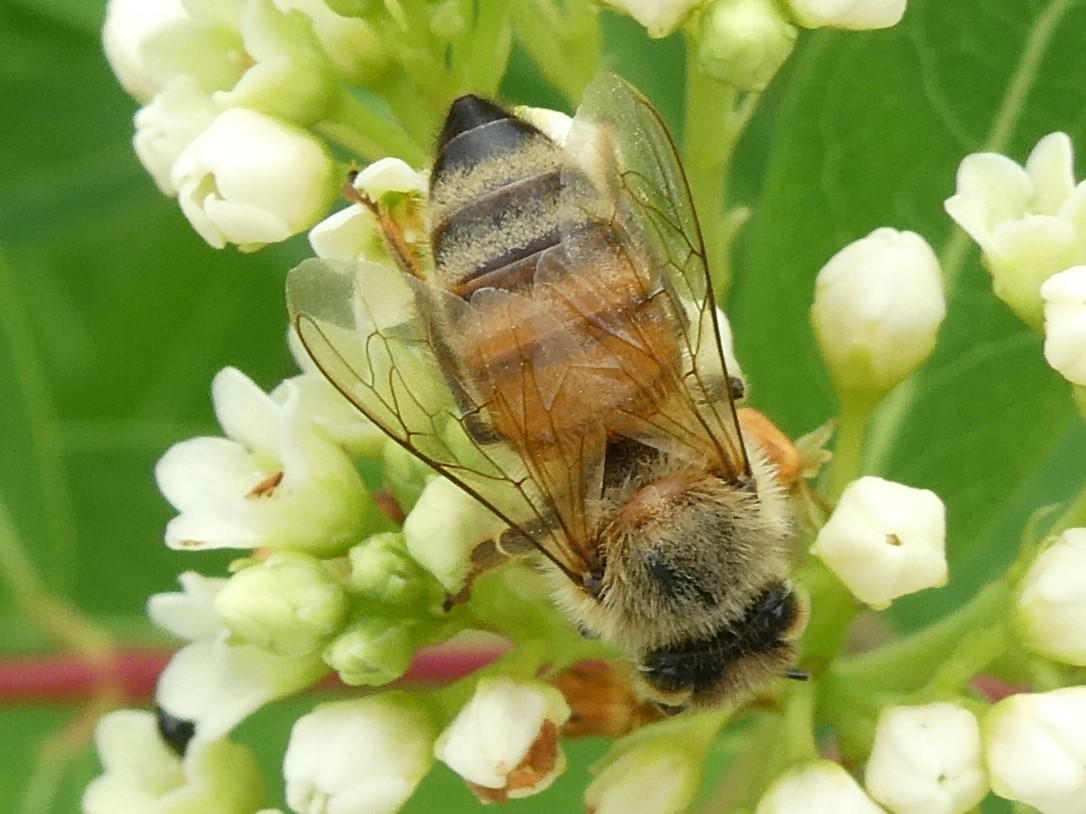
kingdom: Animalia
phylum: Arthropoda
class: Insecta
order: Hymenoptera
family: Apidae
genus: Apis
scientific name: Apis mellifera
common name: Honey bee
